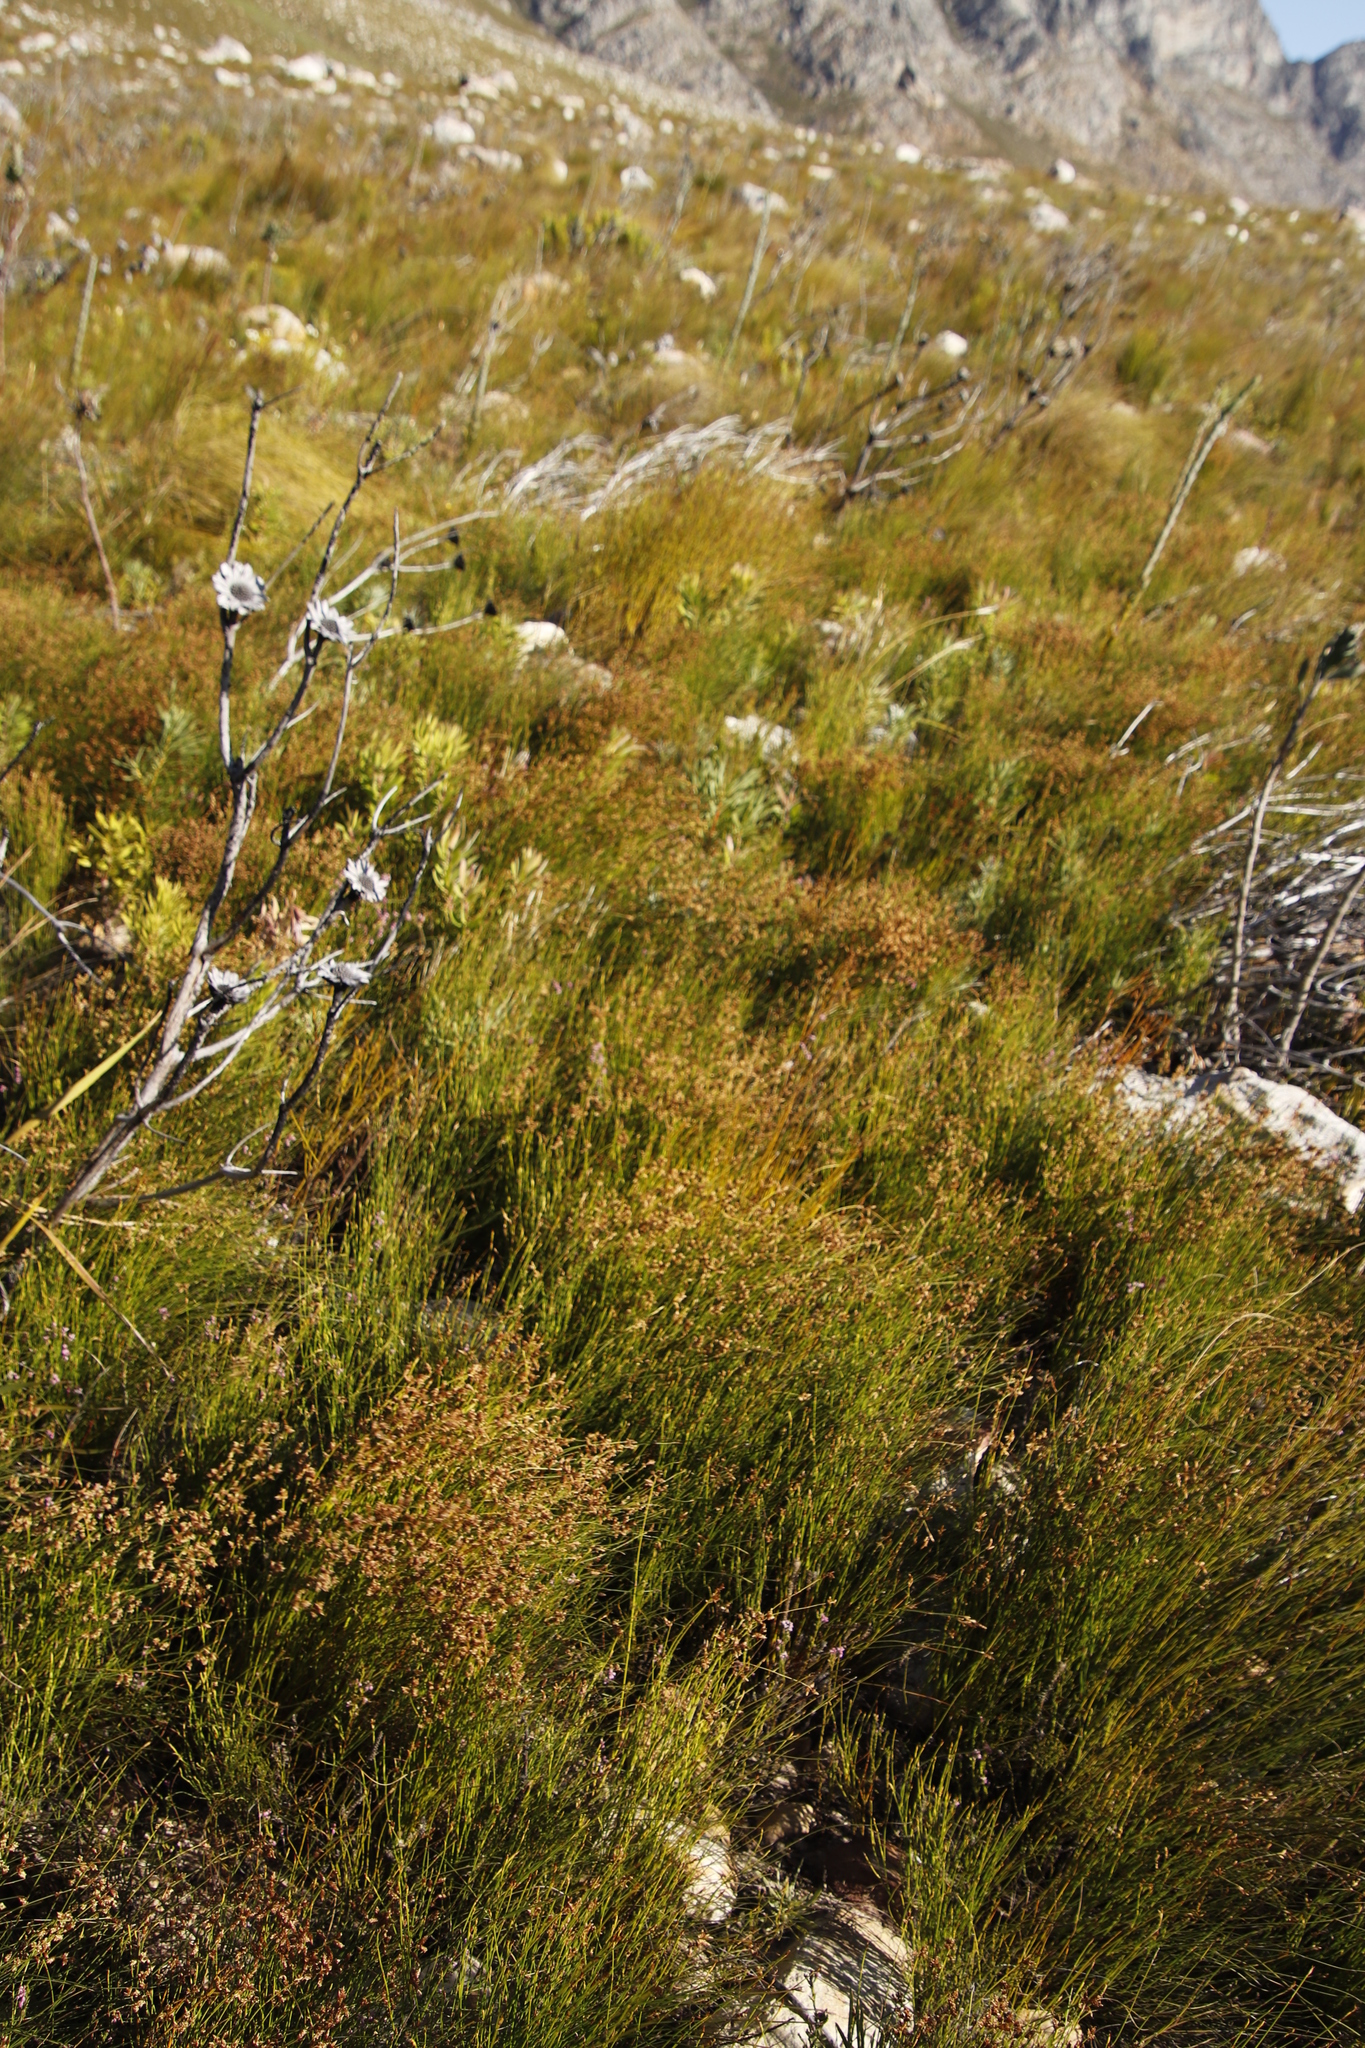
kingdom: Plantae
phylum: Tracheophyta
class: Liliopsida
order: Poales
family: Restionaceae
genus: Mastersiella
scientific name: Mastersiella digitata
